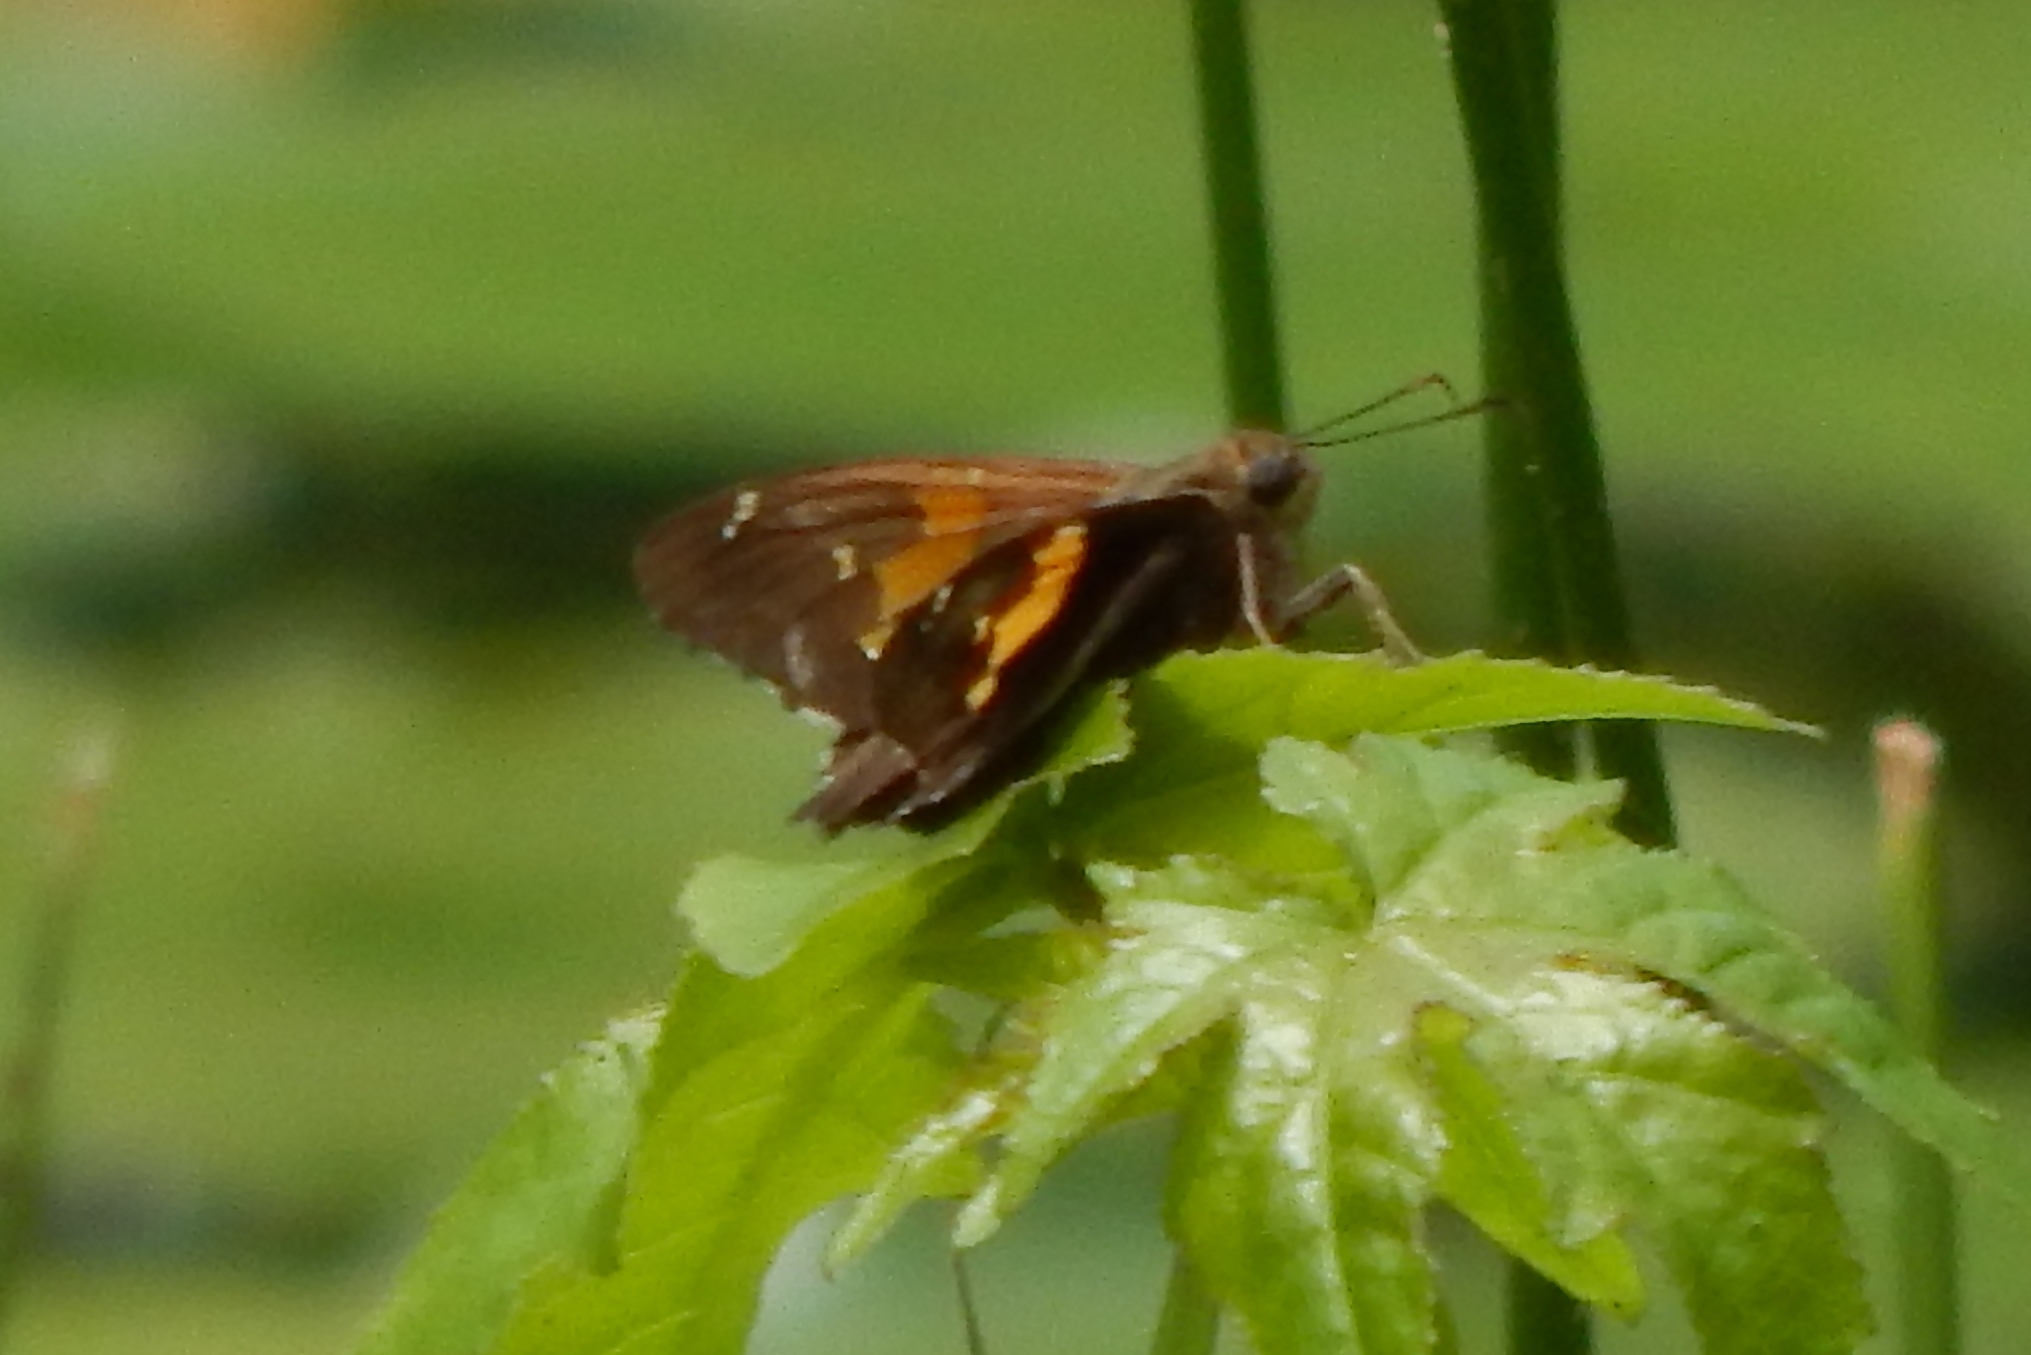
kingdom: Animalia
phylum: Arthropoda
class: Insecta
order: Lepidoptera
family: Hesperiidae
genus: Epargyreus
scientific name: Epargyreus clarus
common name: Silver-spotted skipper
